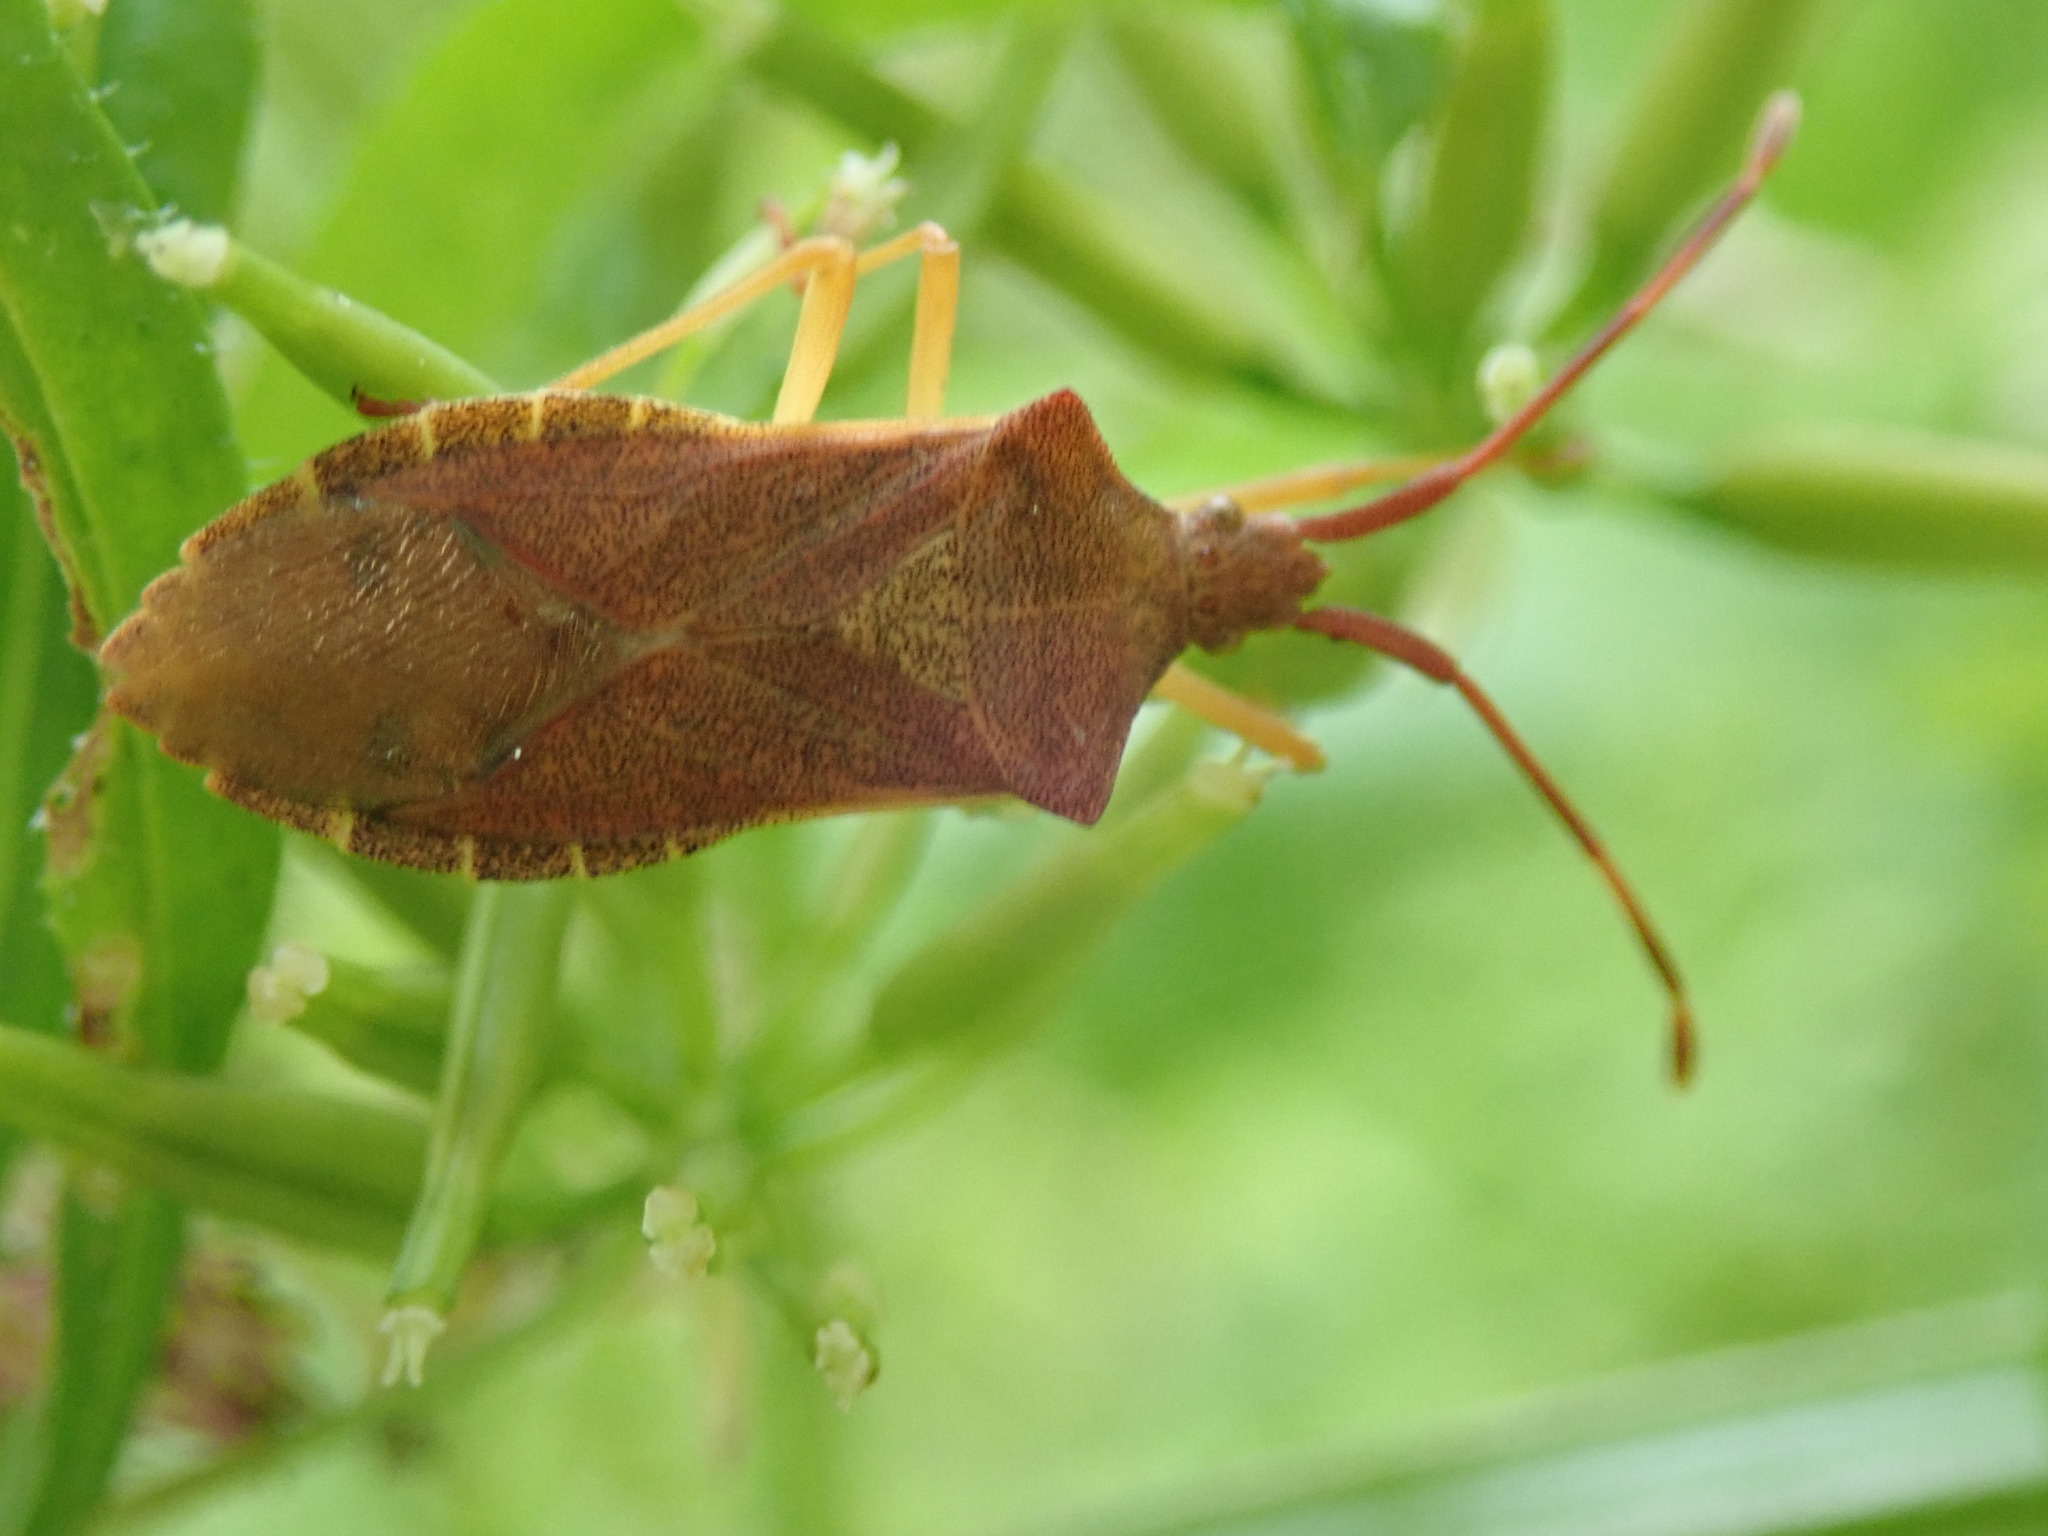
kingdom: Animalia
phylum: Arthropoda
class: Insecta
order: Hemiptera
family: Coreidae
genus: Gonocerus
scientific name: Gonocerus acuteangulatus
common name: Box bug
